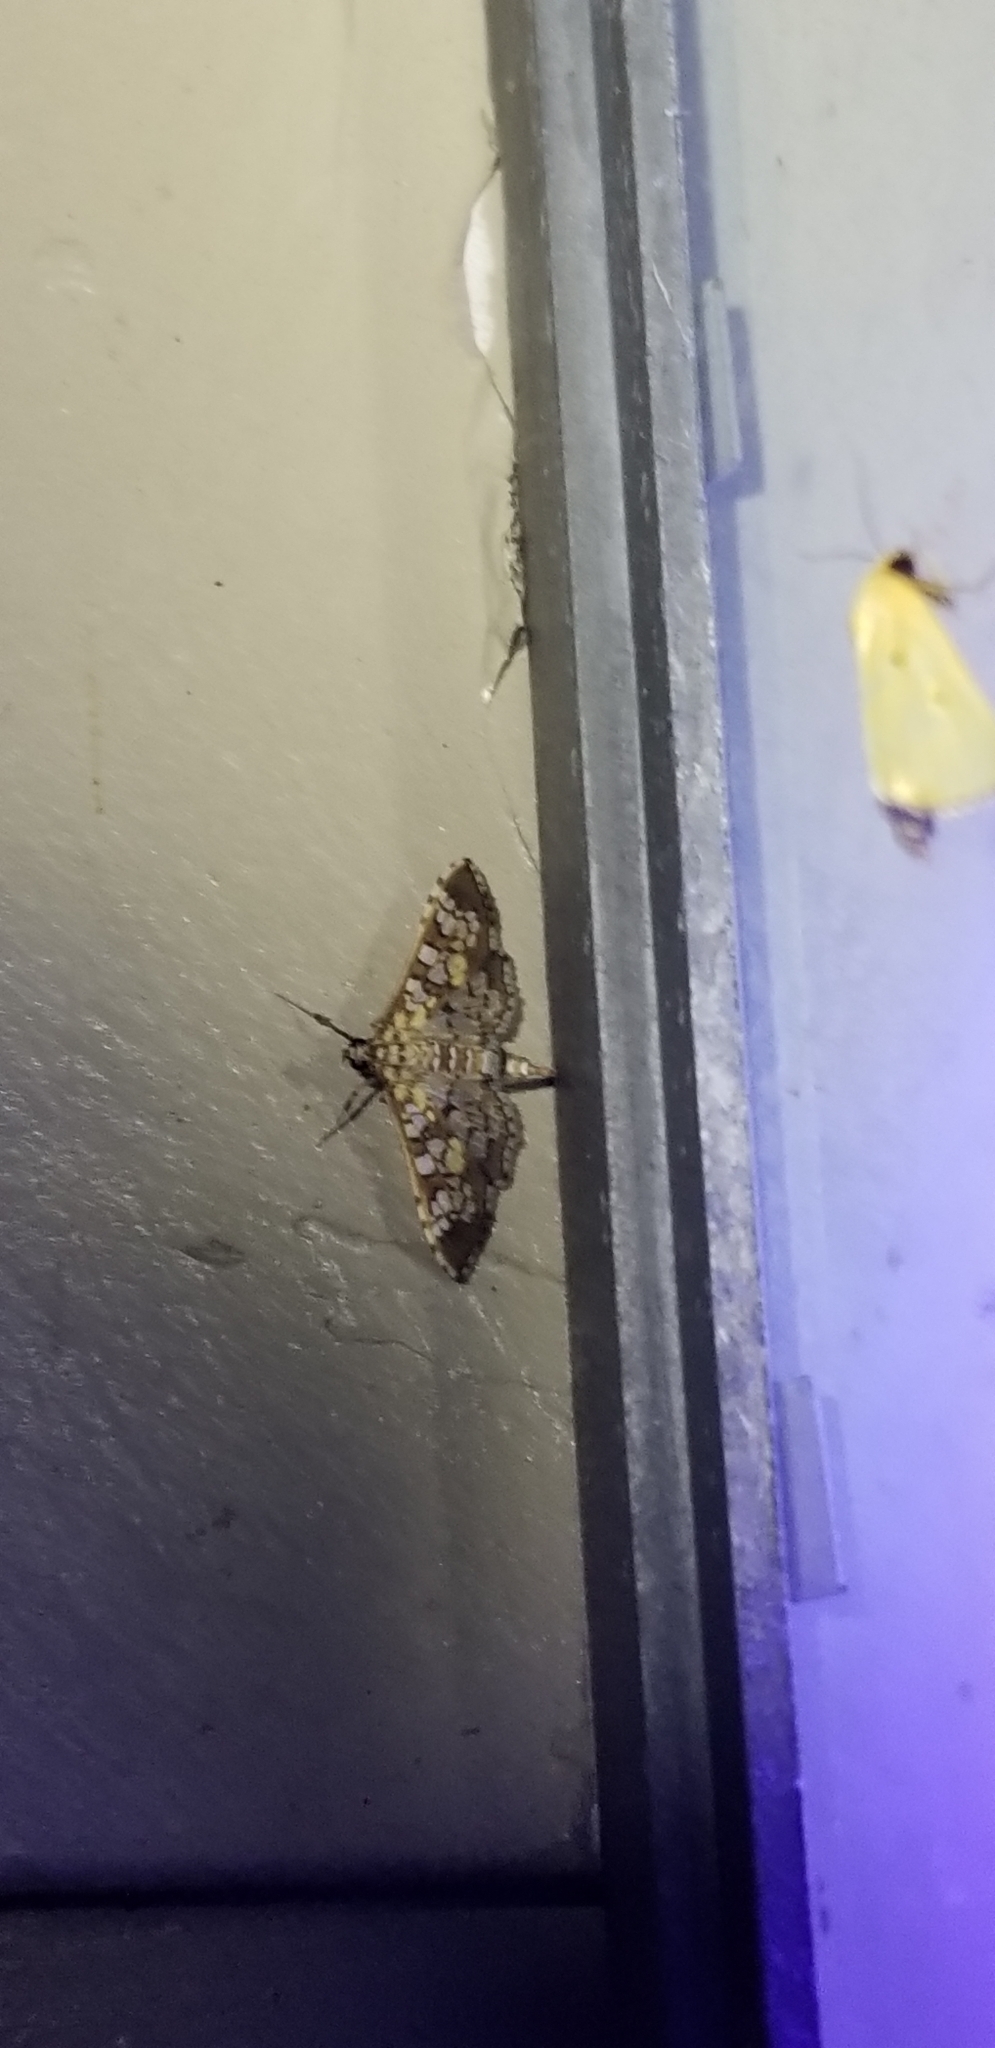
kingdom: Animalia
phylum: Arthropoda
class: Insecta
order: Lepidoptera
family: Crambidae
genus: Samea
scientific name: Samea ecclesialis
